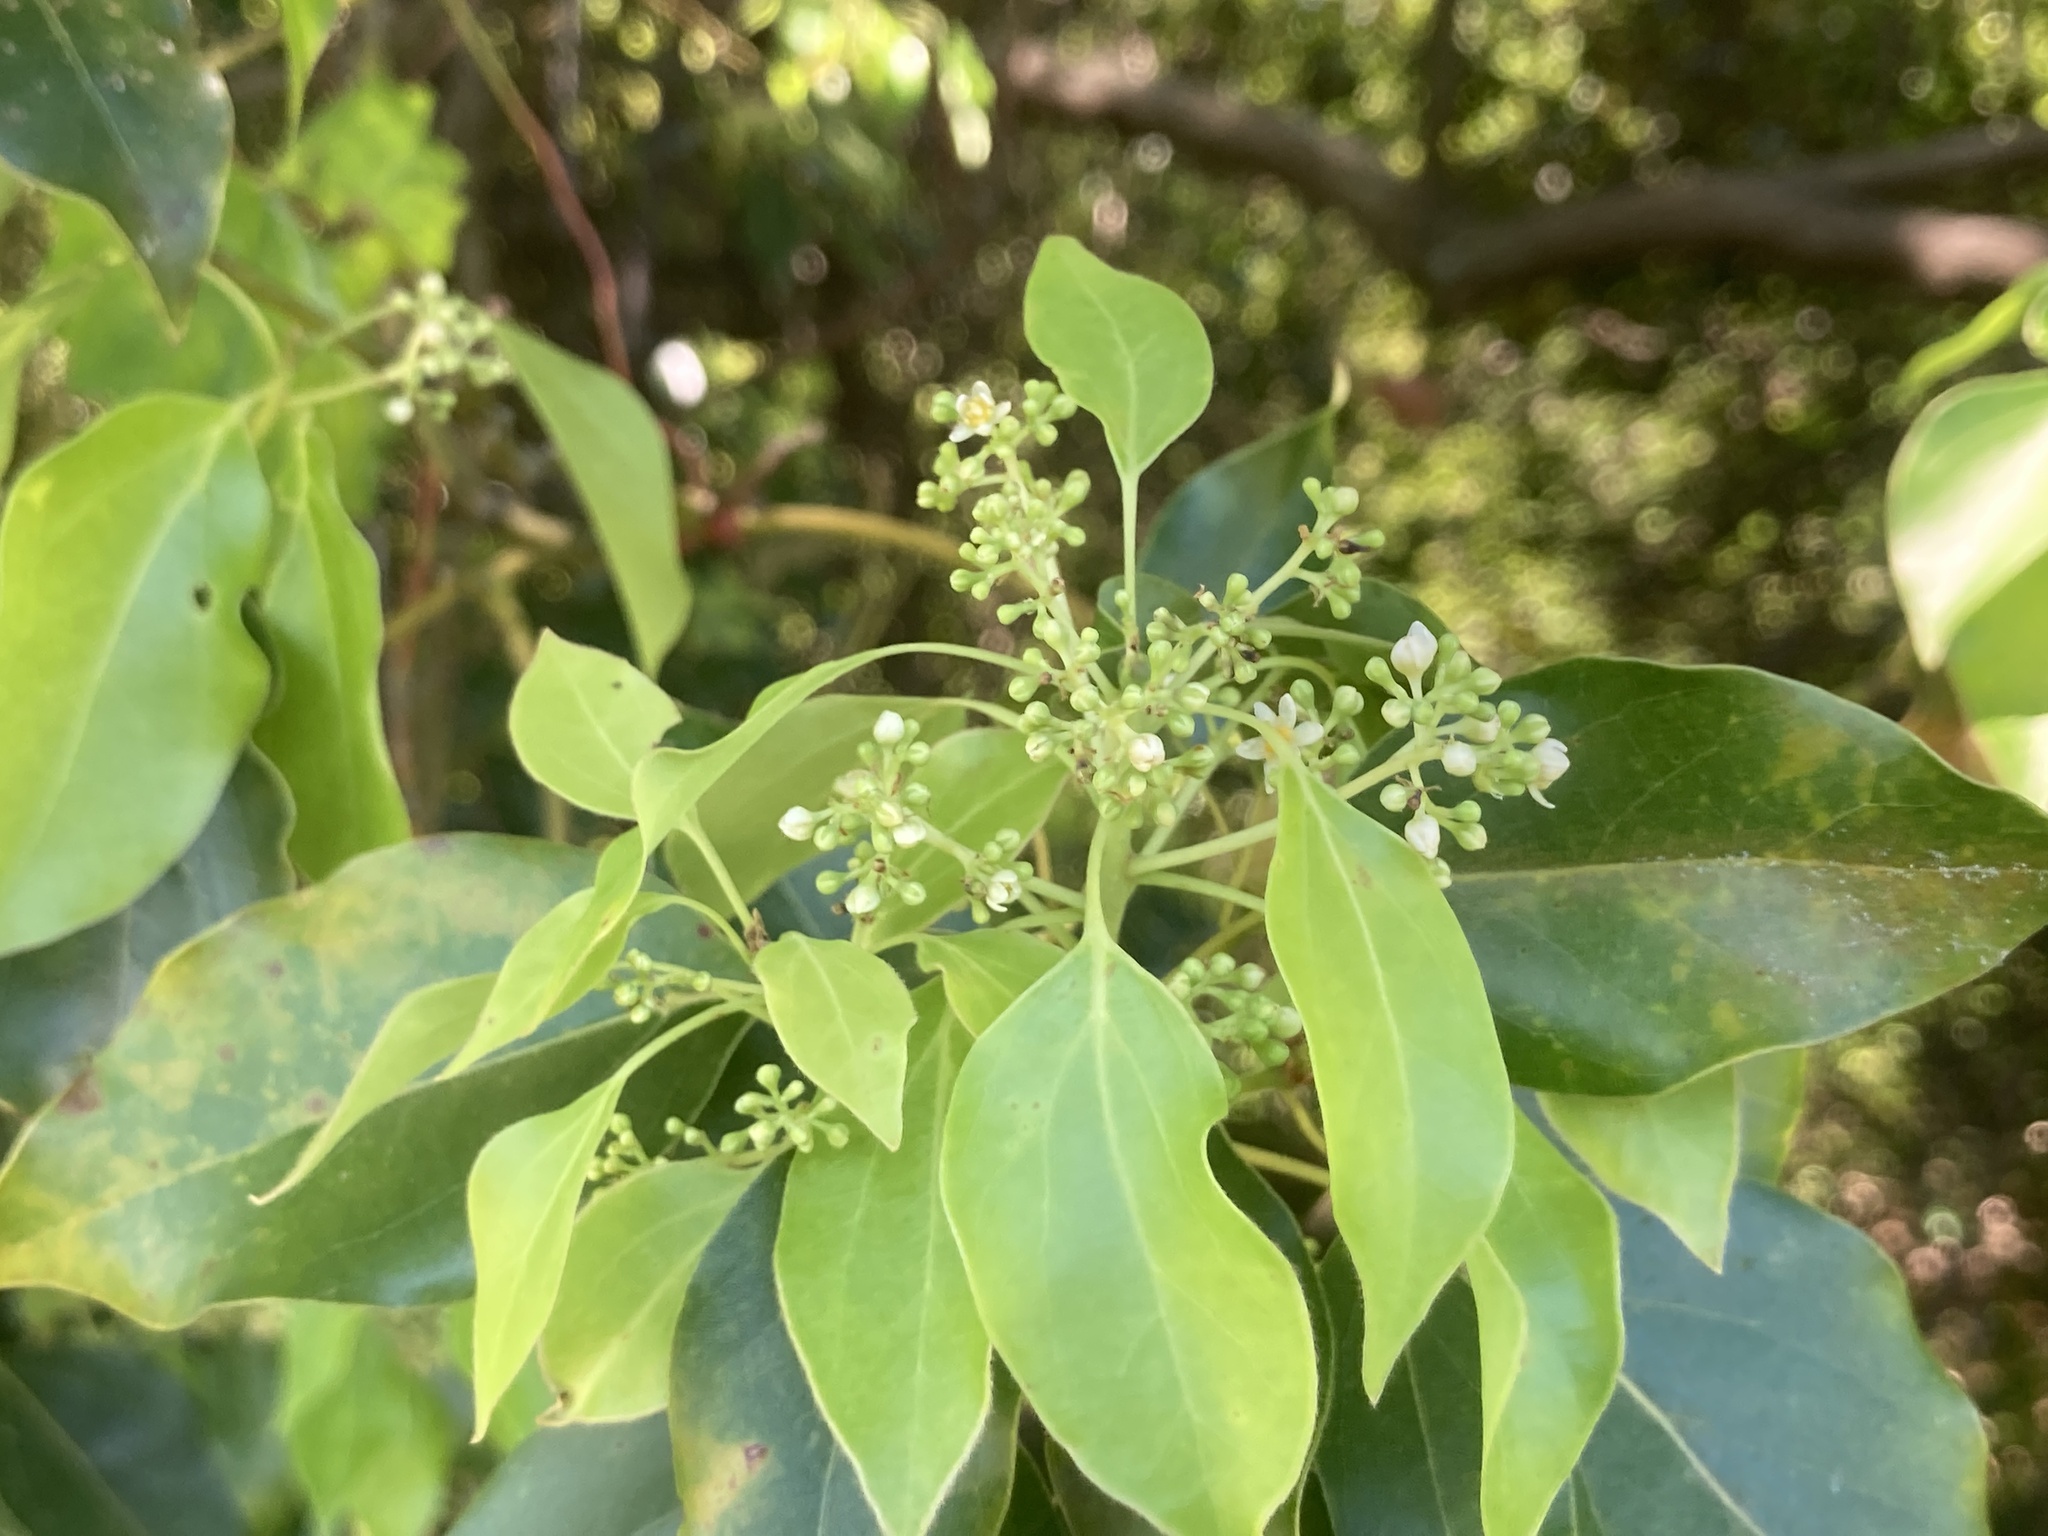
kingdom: Plantae
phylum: Tracheophyta
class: Magnoliopsida
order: Laurales
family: Lauraceae
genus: Cinnamomum
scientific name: Cinnamomum camphora
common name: Camphortree
